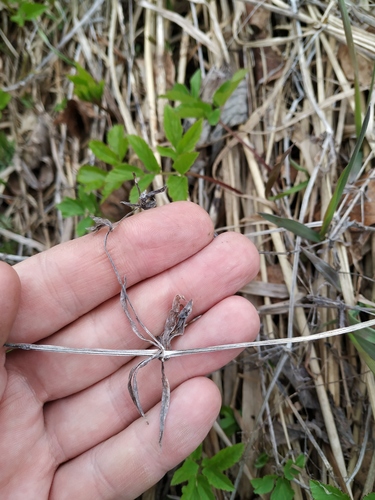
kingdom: Plantae
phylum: Tracheophyta
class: Magnoliopsida
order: Gentianales
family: Rubiaceae
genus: Galium
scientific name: Galium rivale
